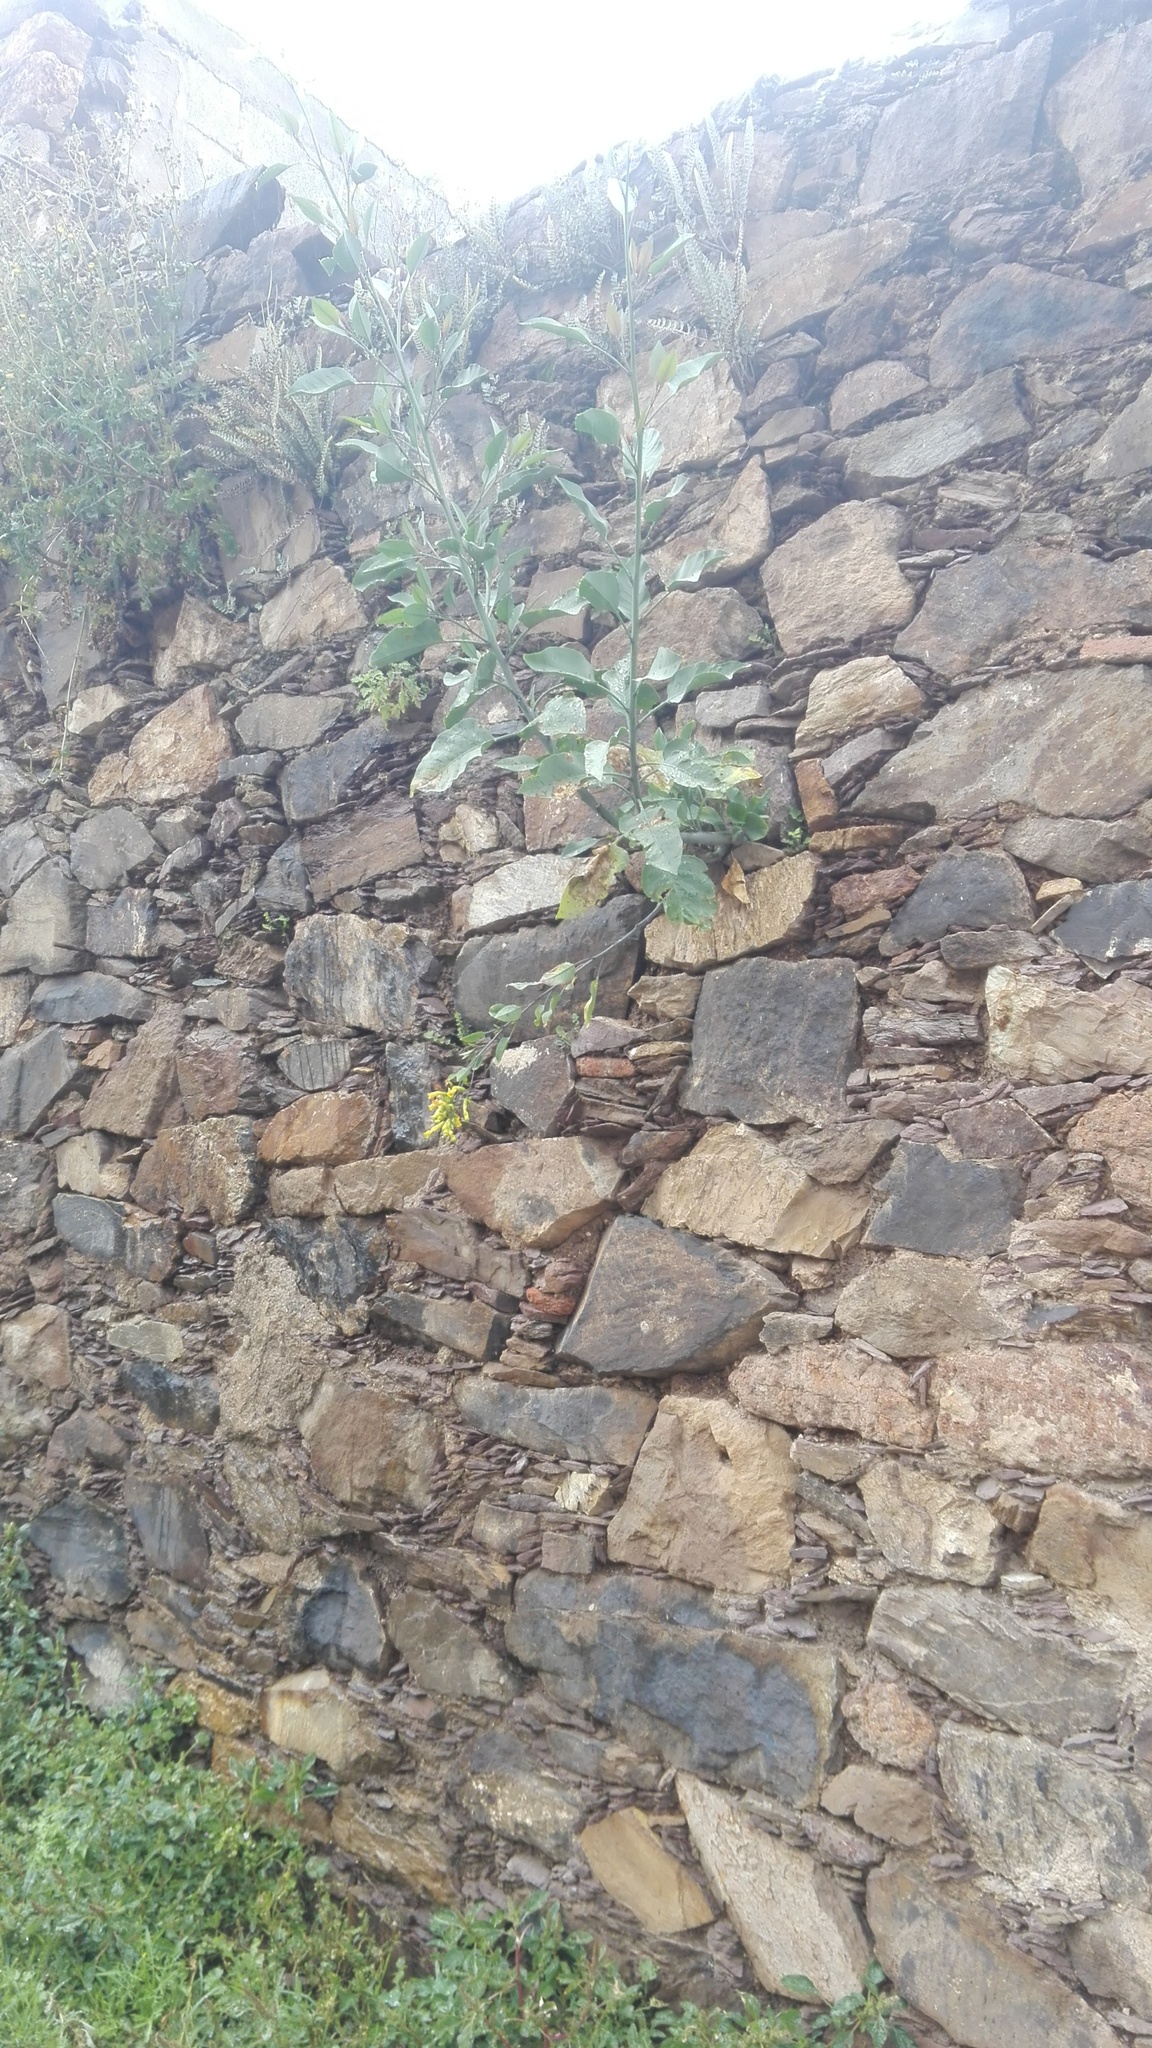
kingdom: Plantae
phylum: Tracheophyta
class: Magnoliopsida
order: Solanales
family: Solanaceae
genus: Nicotiana
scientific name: Nicotiana glauca
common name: Tree tobacco
